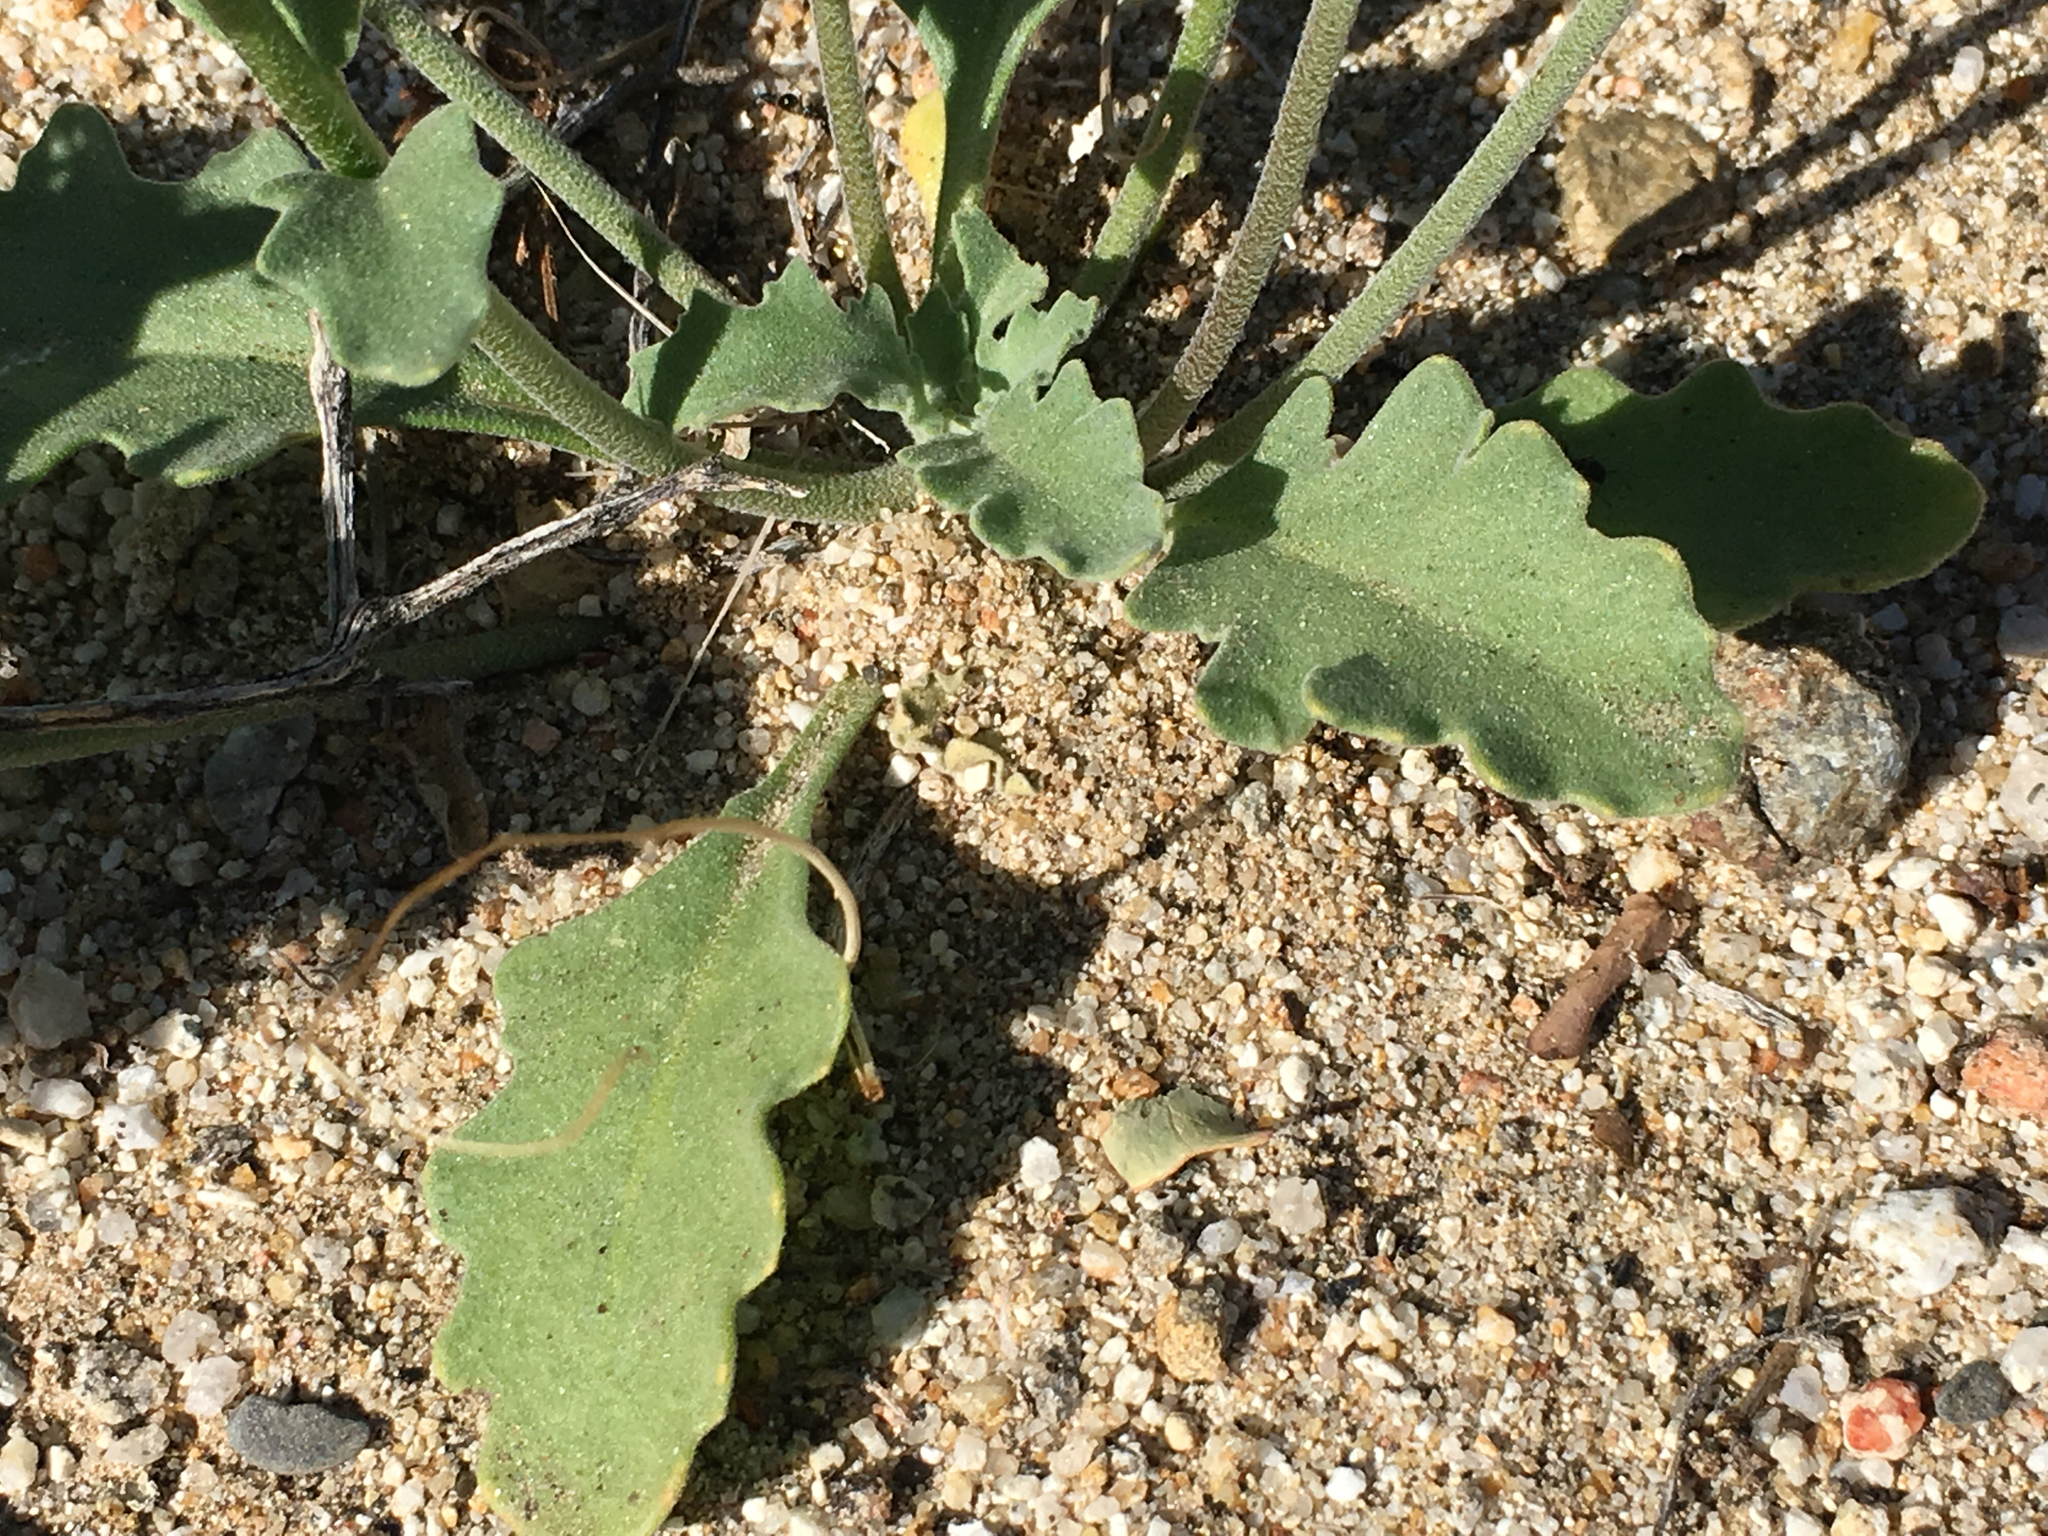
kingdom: Plantae
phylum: Tracheophyta
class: Magnoliopsida
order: Brassicales
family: Brassicaceae
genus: Dithyrea
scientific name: Dithyrea californica
